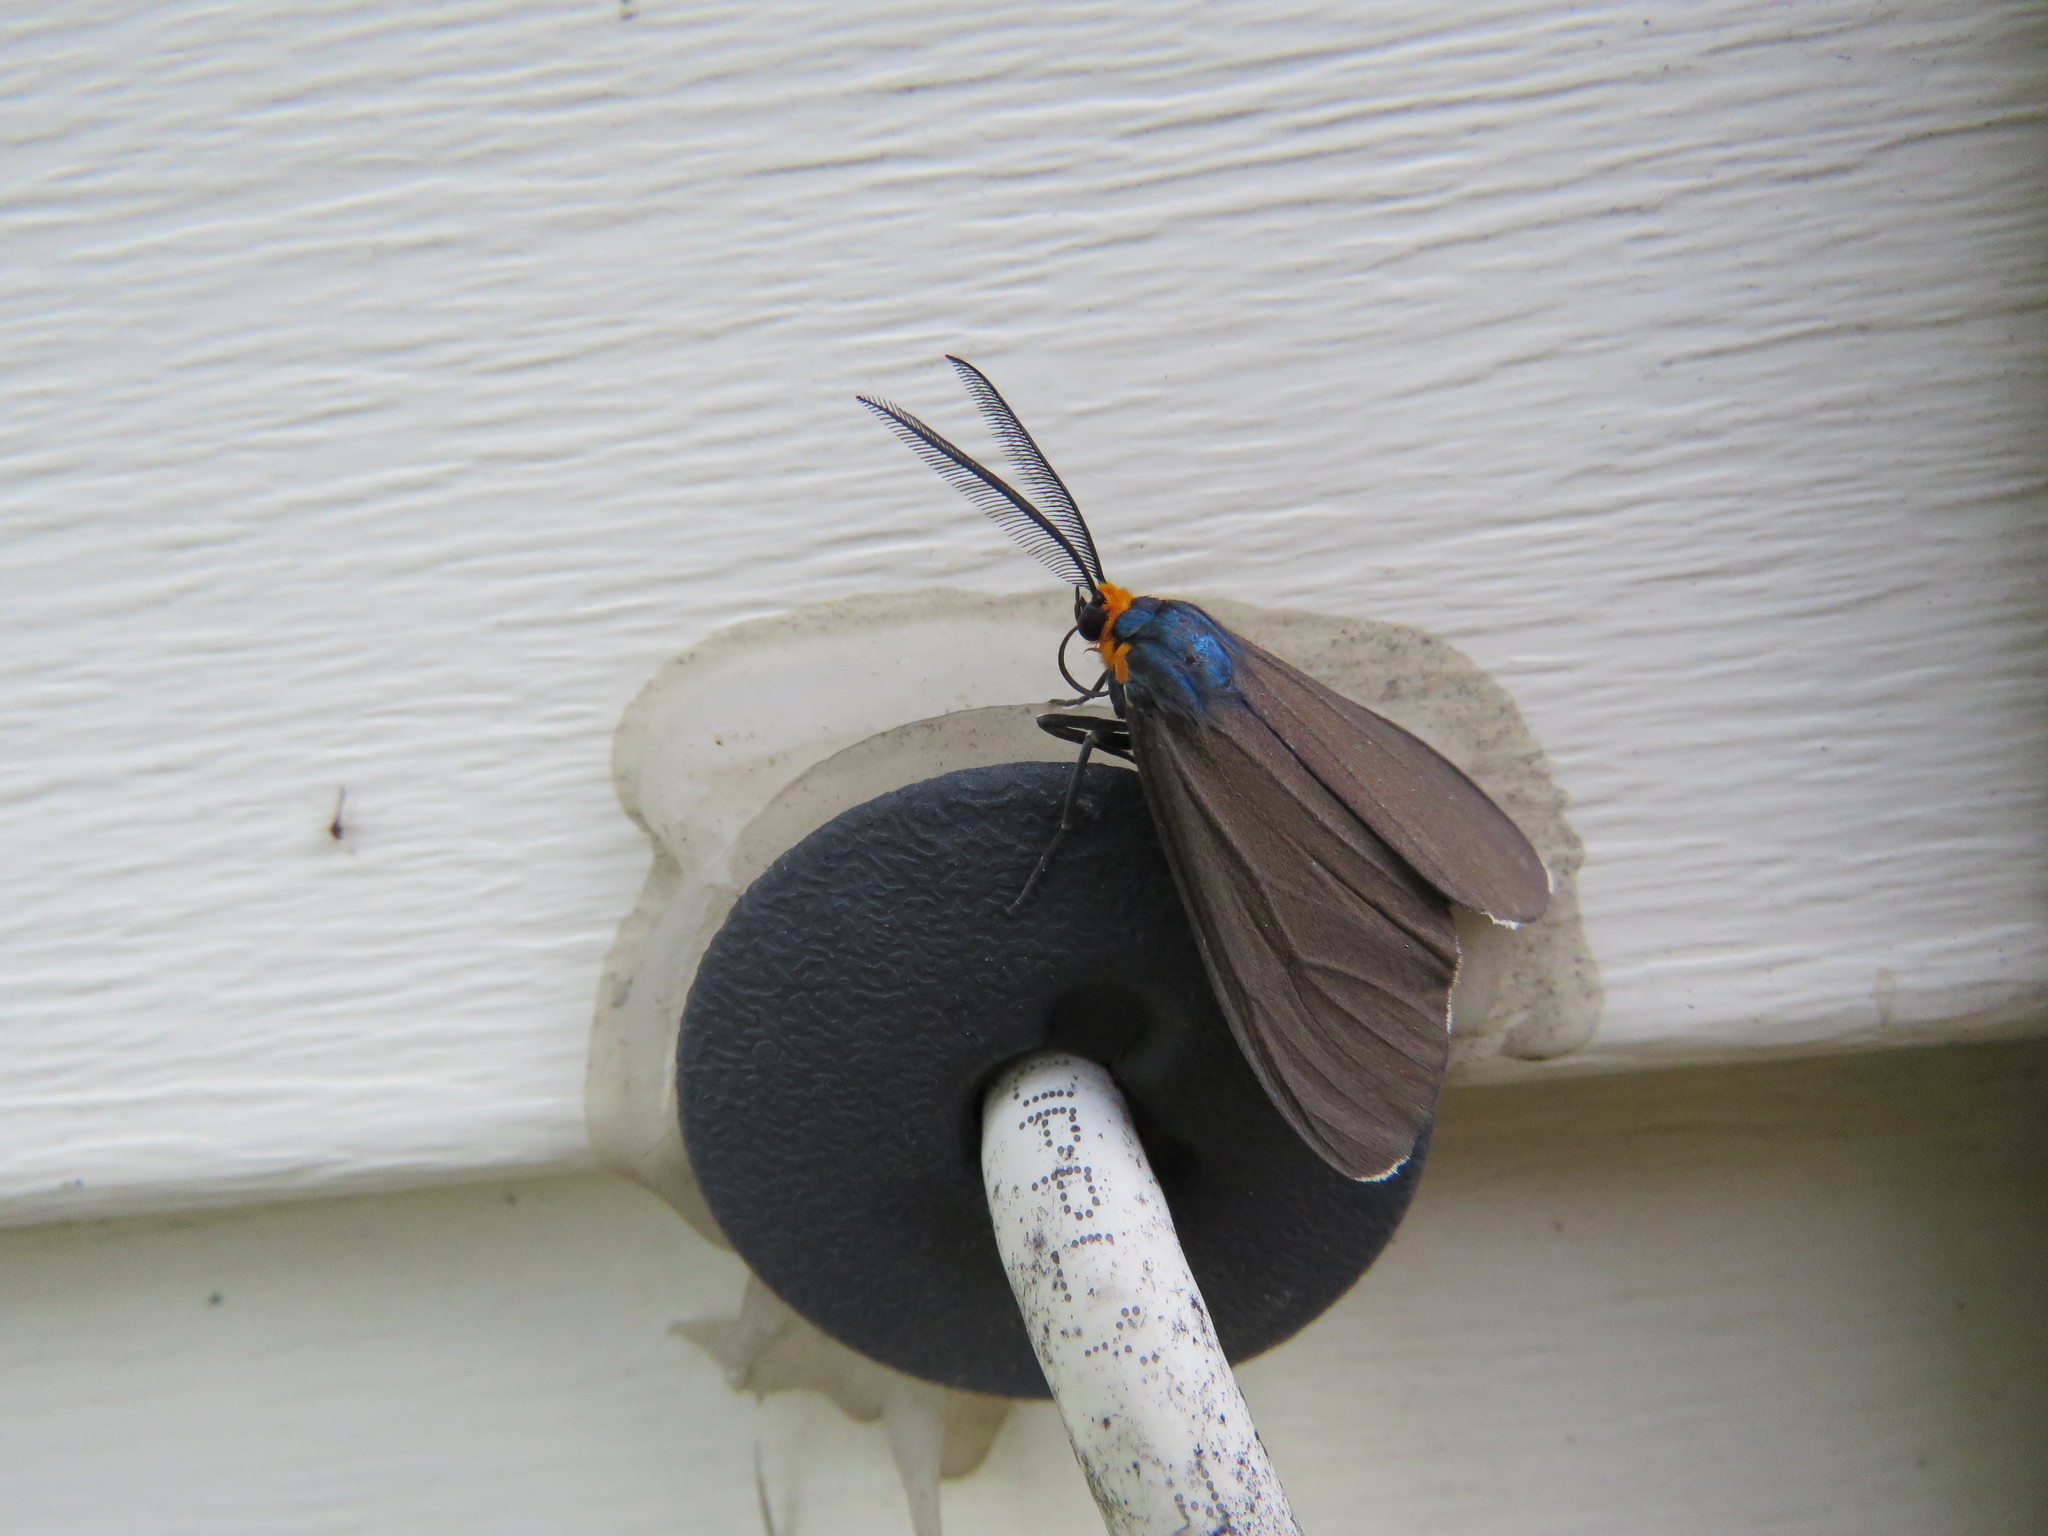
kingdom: Animalia
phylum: Arthropoda
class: Insecta
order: Lepidoptera
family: Erebidae
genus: Ctenucha
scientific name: Ctenucha virginica
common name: Virginia ctenucha moth
